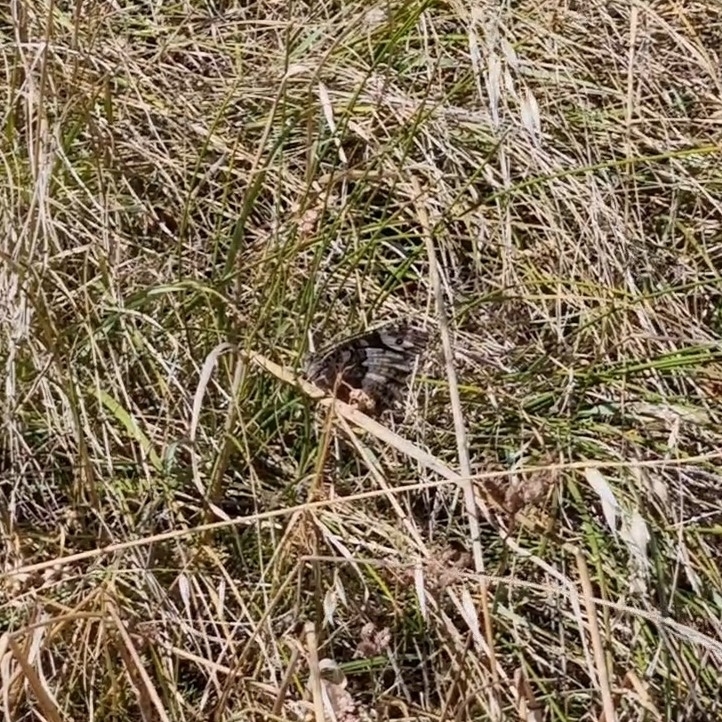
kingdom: Animalia
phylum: Arthropoda
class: Insecta
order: Lepidoptera
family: Lycaenidae
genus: Loweia
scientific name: Loweia tityrus
